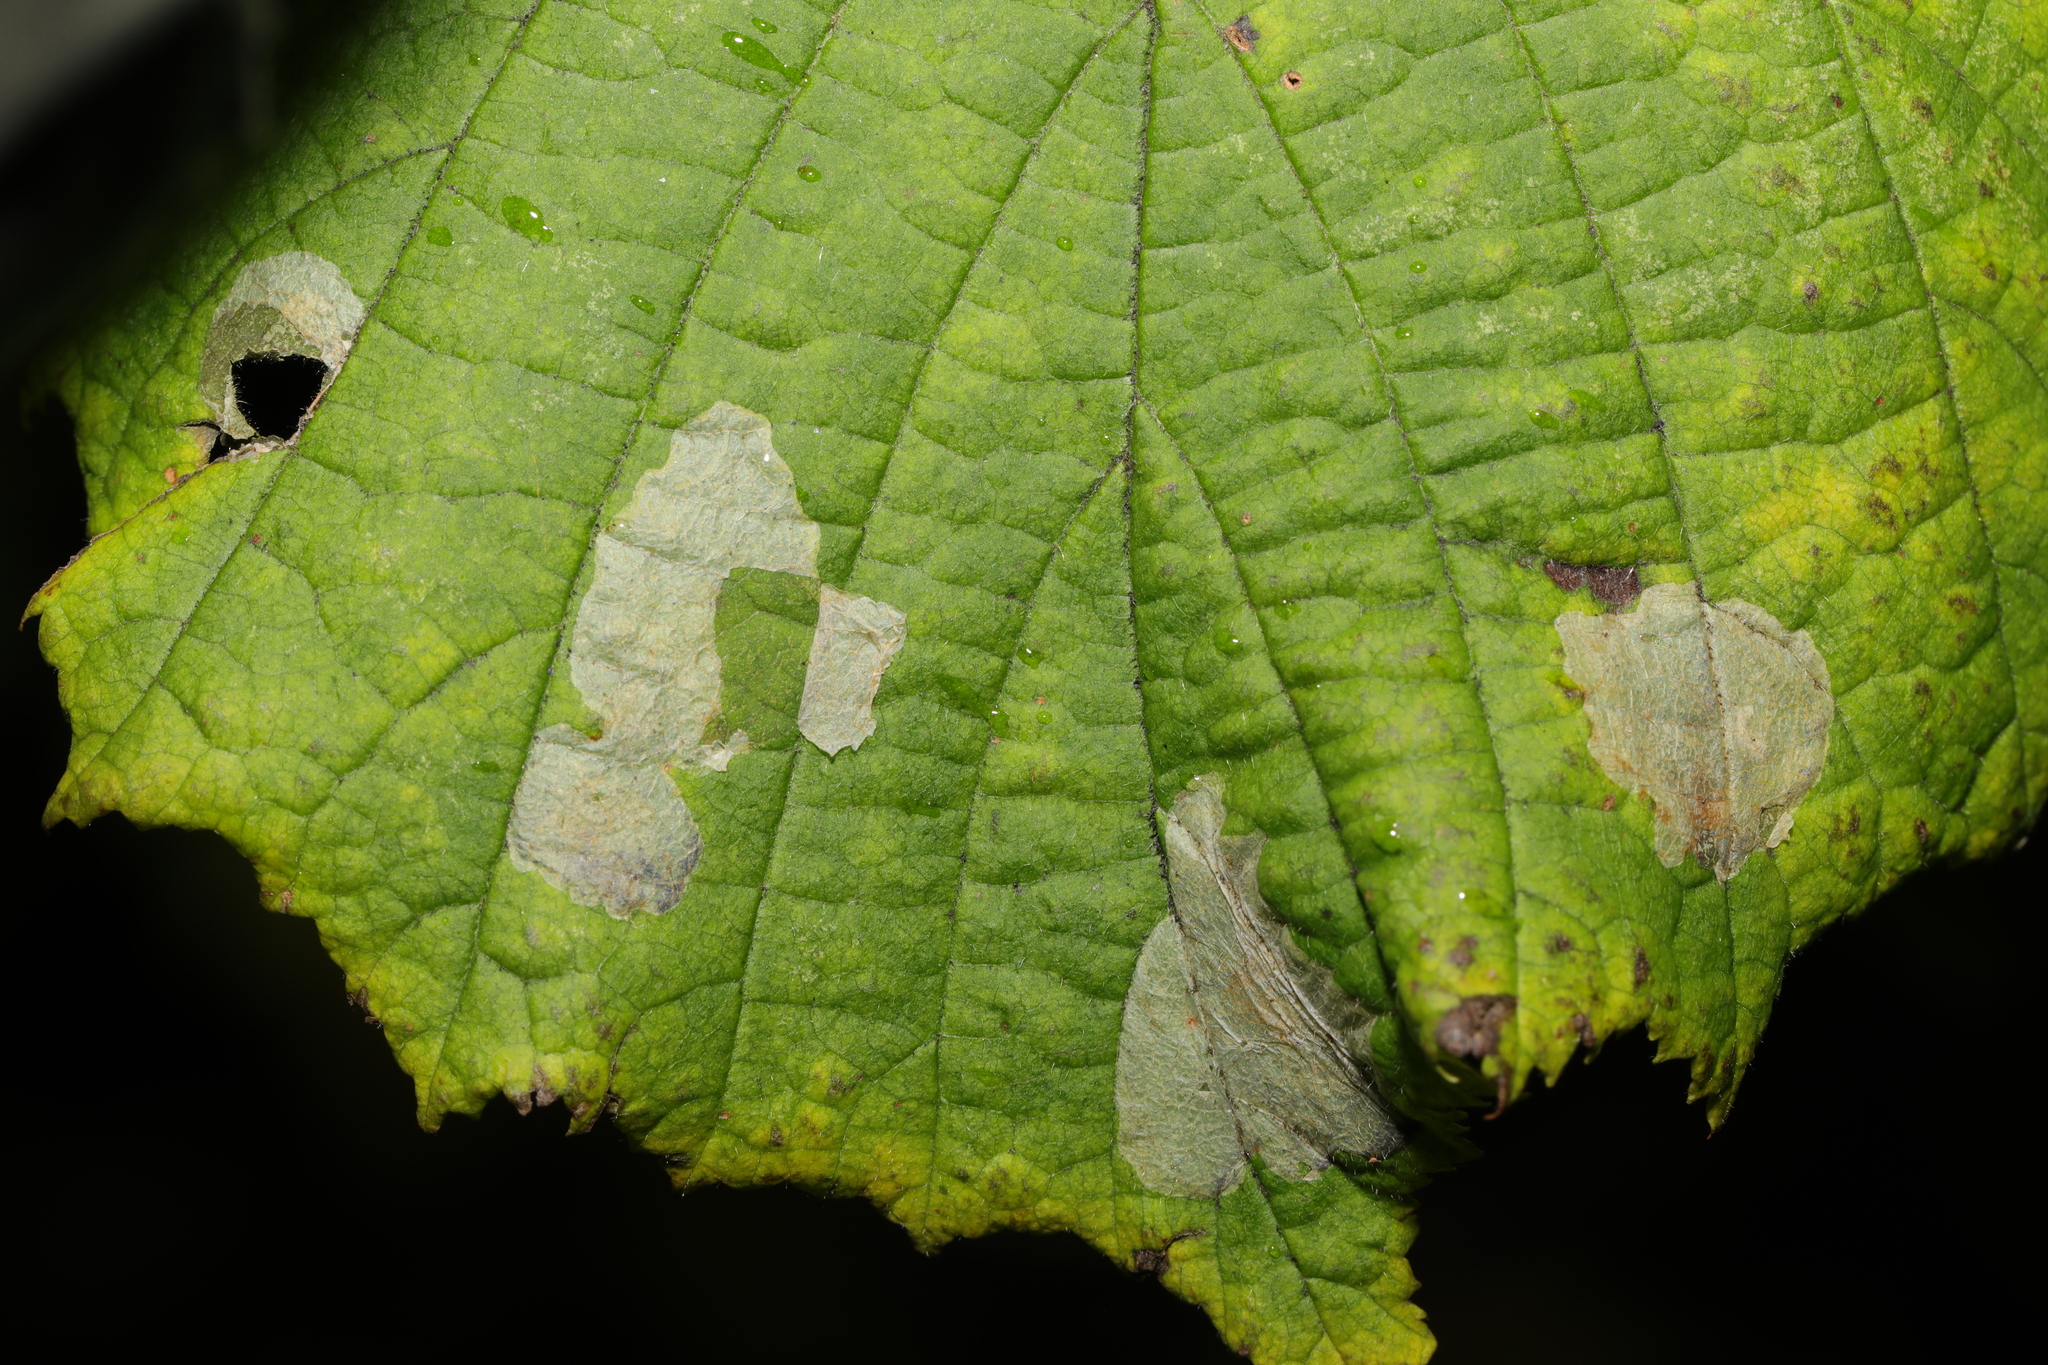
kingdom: Animalia
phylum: Arthropoda
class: Insecta
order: Lepidoptera
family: Gracillariidae
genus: Phyllonorycter
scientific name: Phyllonorycter coryli
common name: Nut-leaf blister moth
